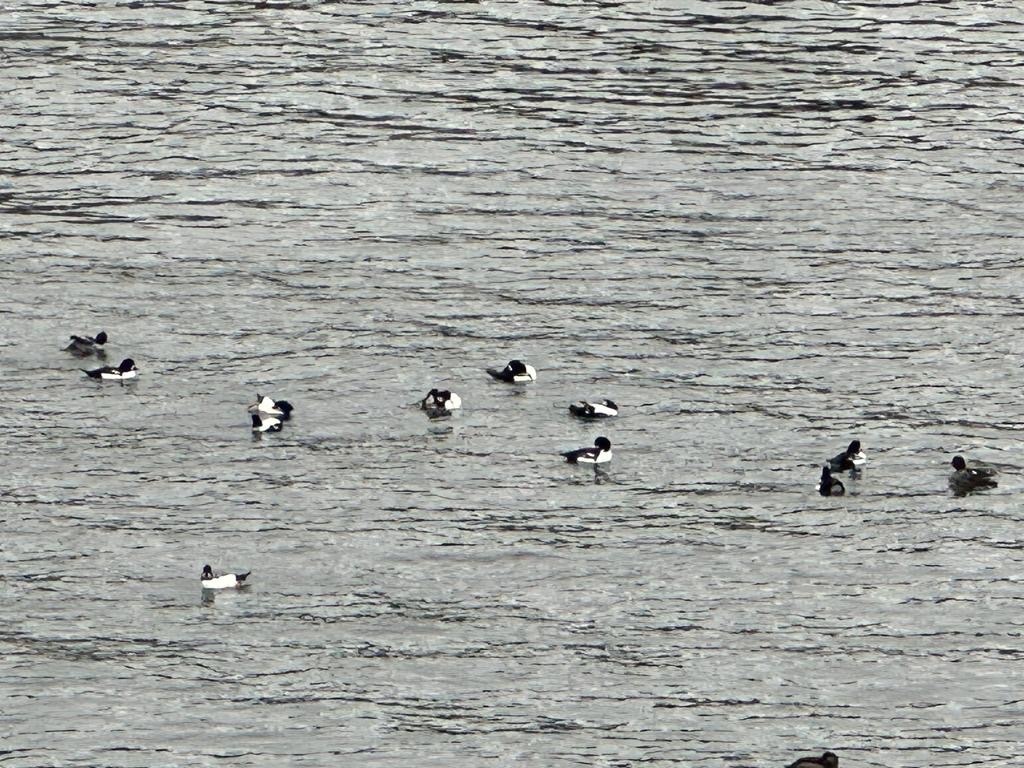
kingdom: Animalia
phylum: Chordata
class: Aves
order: Anseriformes
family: Anatidae
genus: Bucephala
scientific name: Bucephala islandica
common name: Barrow's goldeneye
